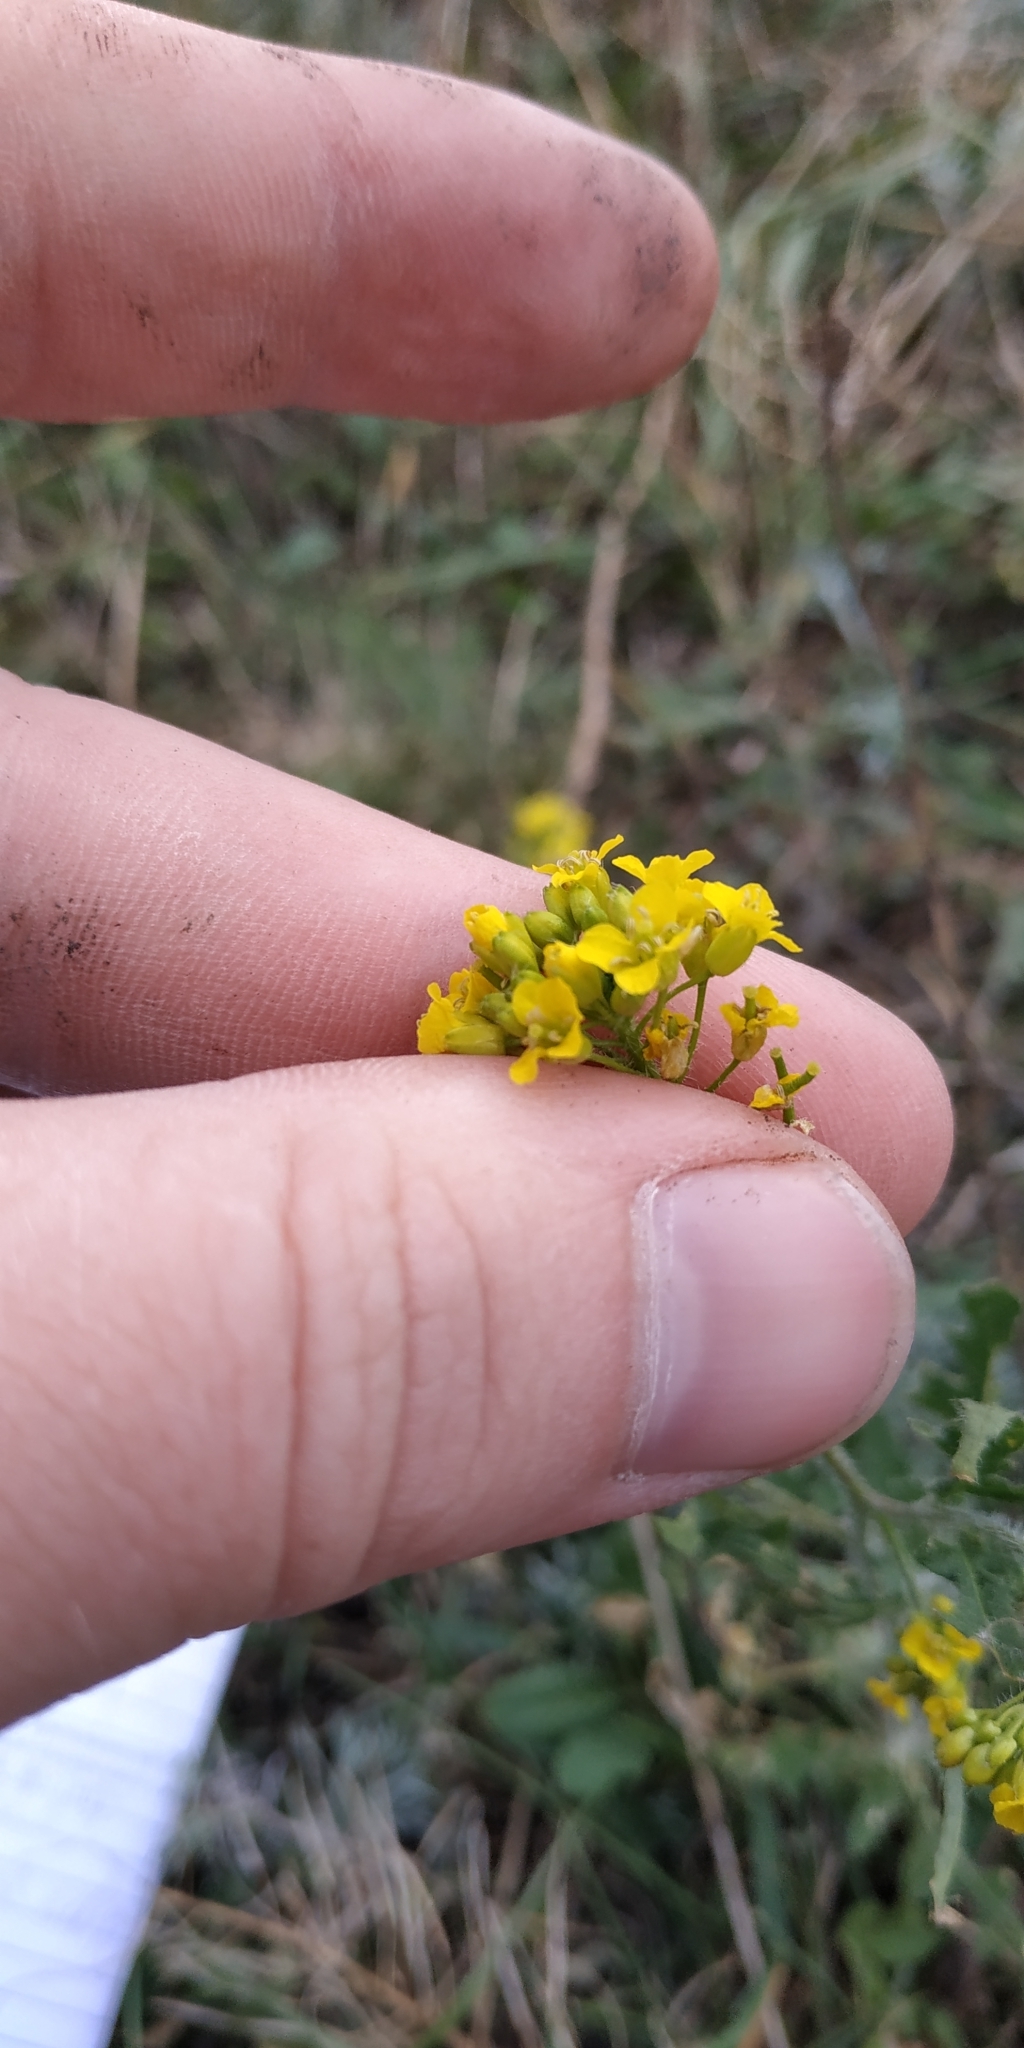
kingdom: Plantae
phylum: Tracheophyta
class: Magnoliopsida
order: Brassicales
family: Brassicaceae
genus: Sisymbrium
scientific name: Sisymbrium loeselii
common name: False london-rocket
